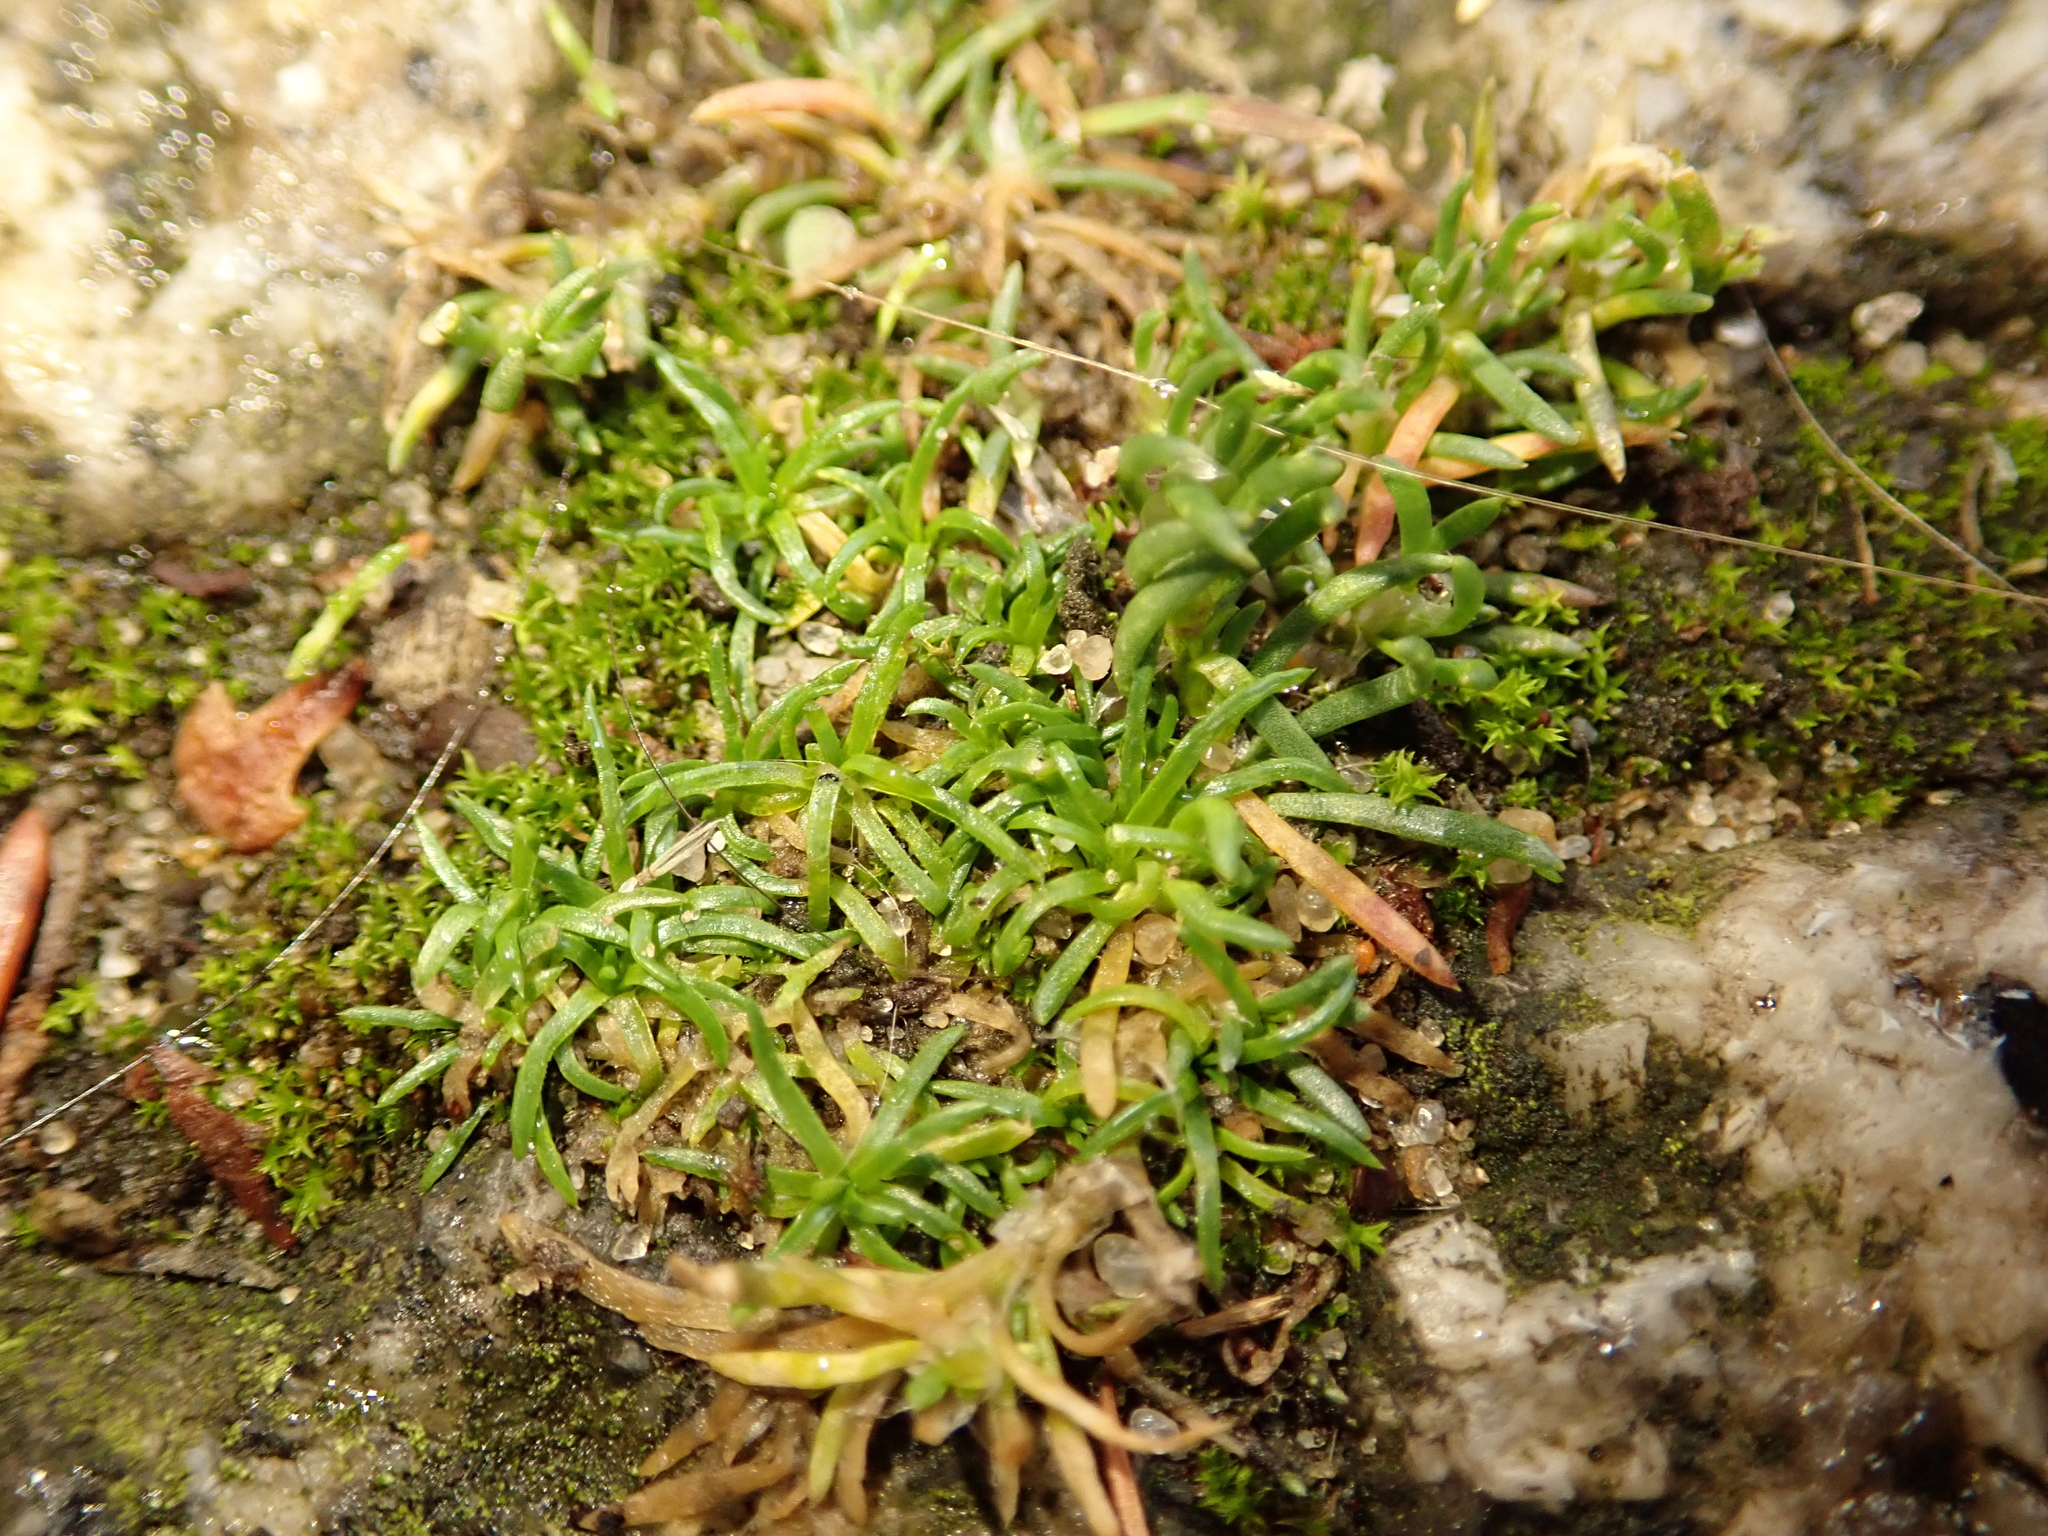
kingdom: Plantae
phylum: Tracheophyta
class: Magnoliopsida
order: Caryophyllales
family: Caryophyllaceae
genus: Sagina
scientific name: Sagina procumbens
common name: Procumbent pearlwort
